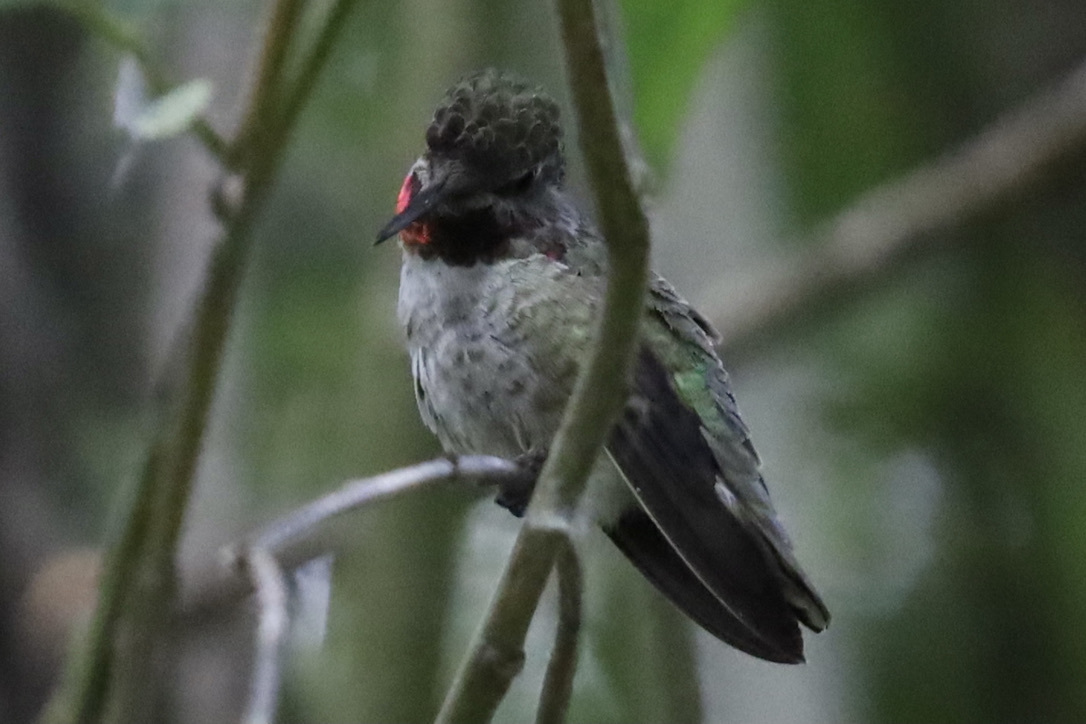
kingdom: Animalia
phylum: Chordata
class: Aves
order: Apodiformes
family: Trochilidae
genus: Calypte
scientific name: Calypte anna
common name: Anna's hummingbird
